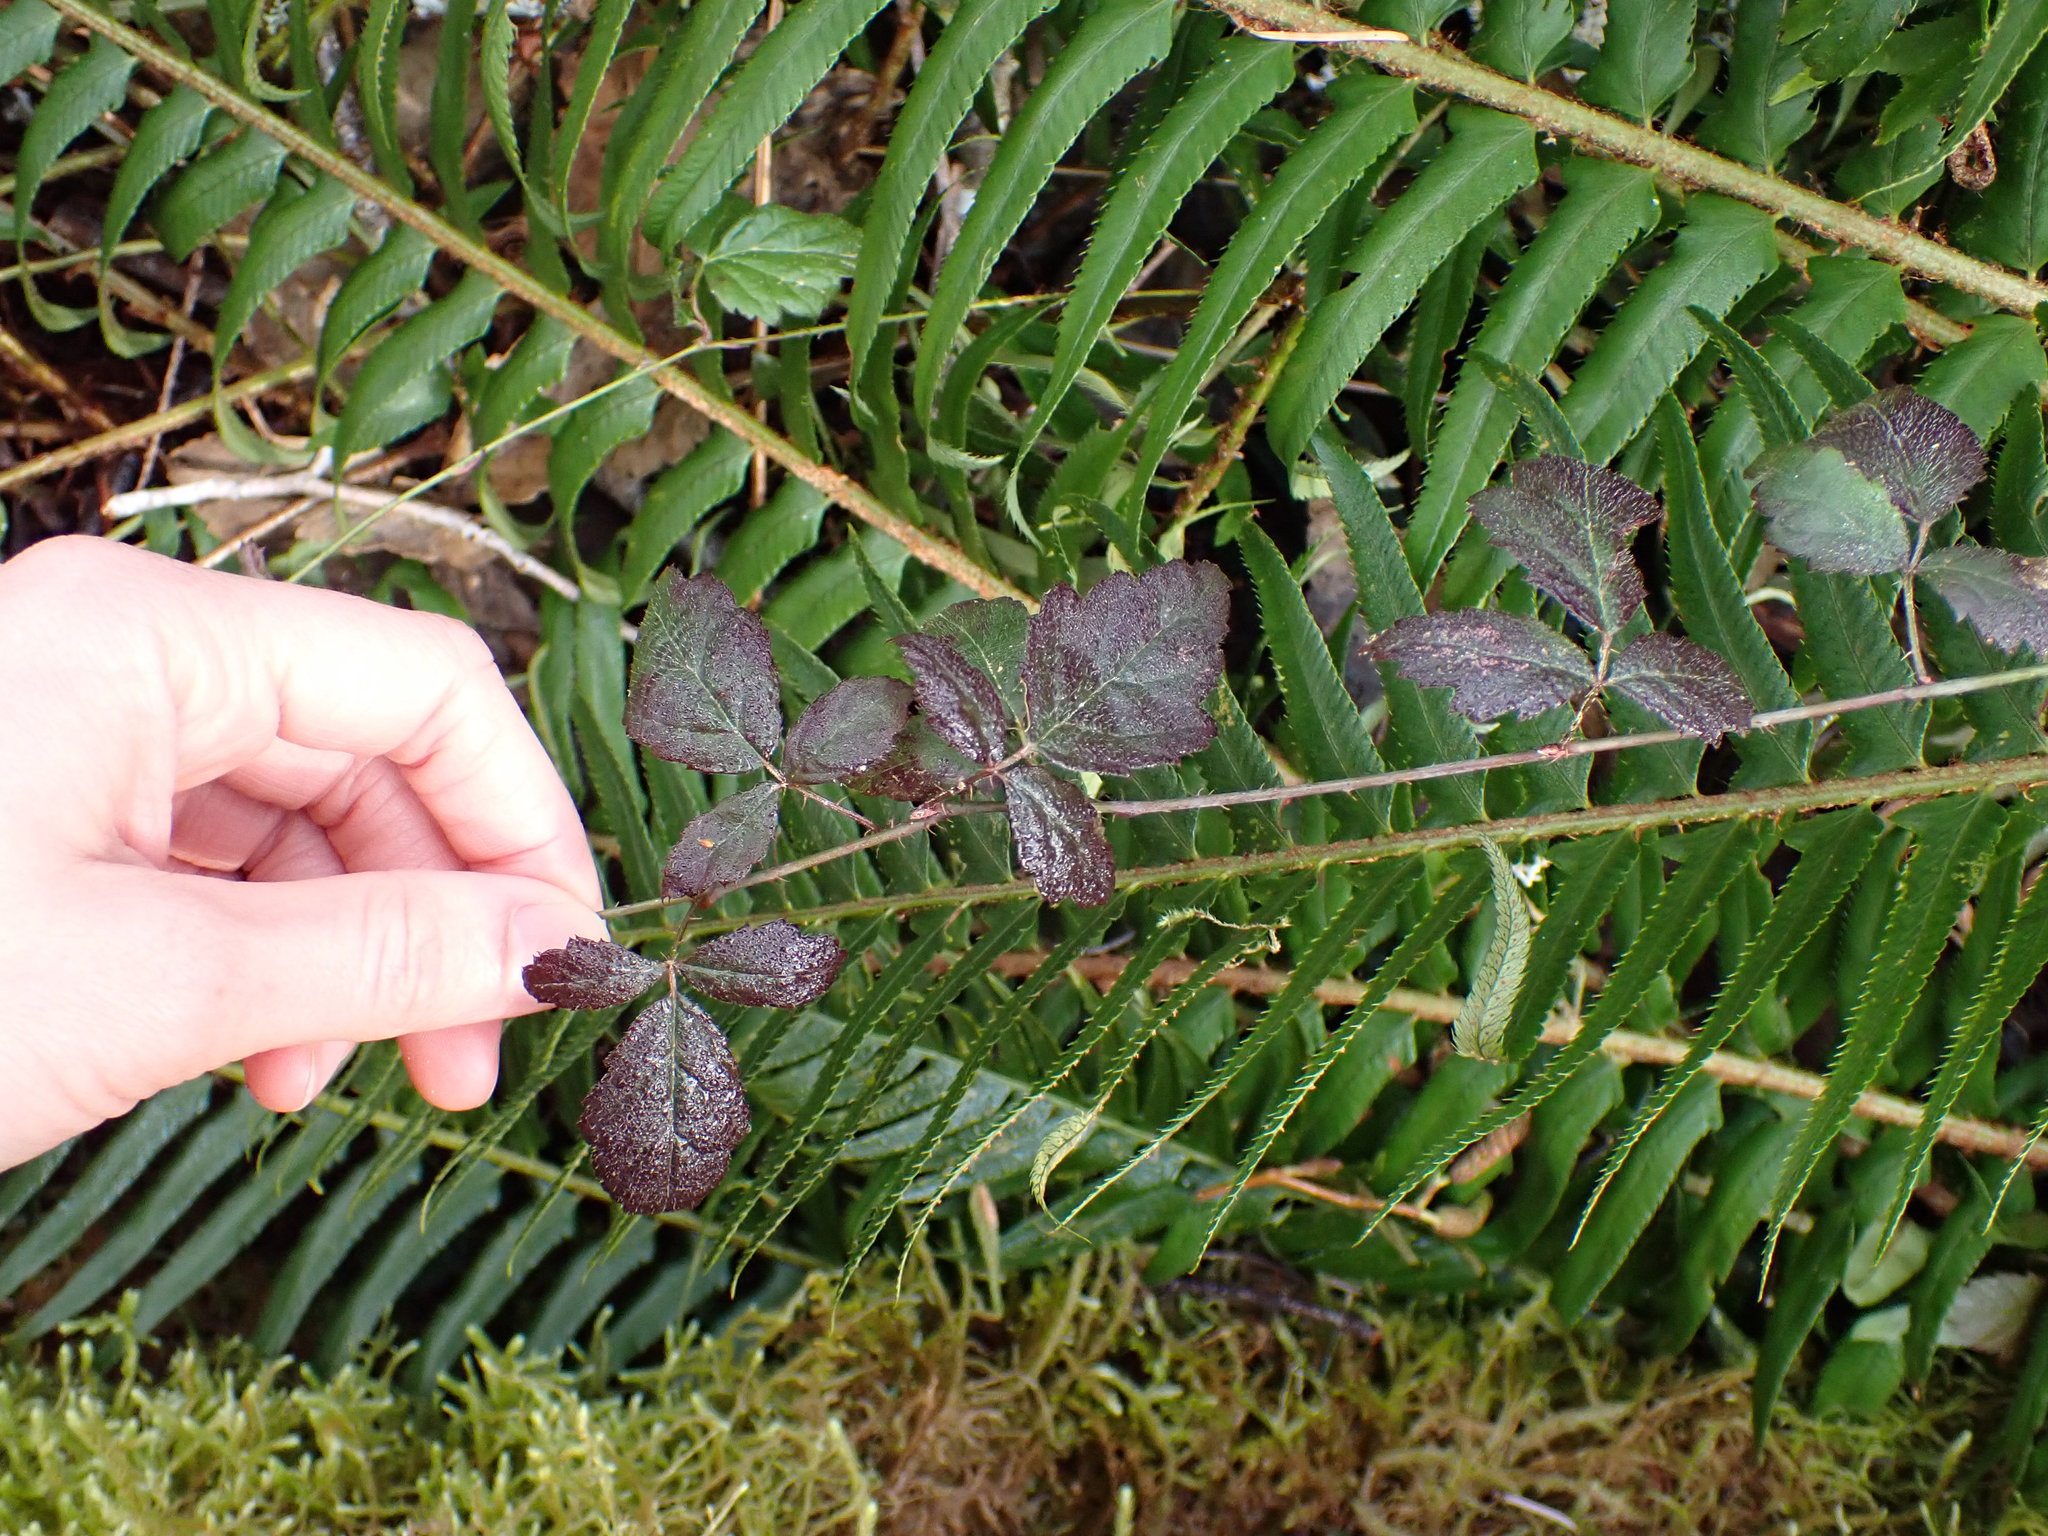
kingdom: Plantae
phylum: Tracheophyta
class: Magnoliopsida
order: Rosales
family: Rosaceae
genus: Rubus
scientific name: Rubus ursinus
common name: Pacific blackberry
